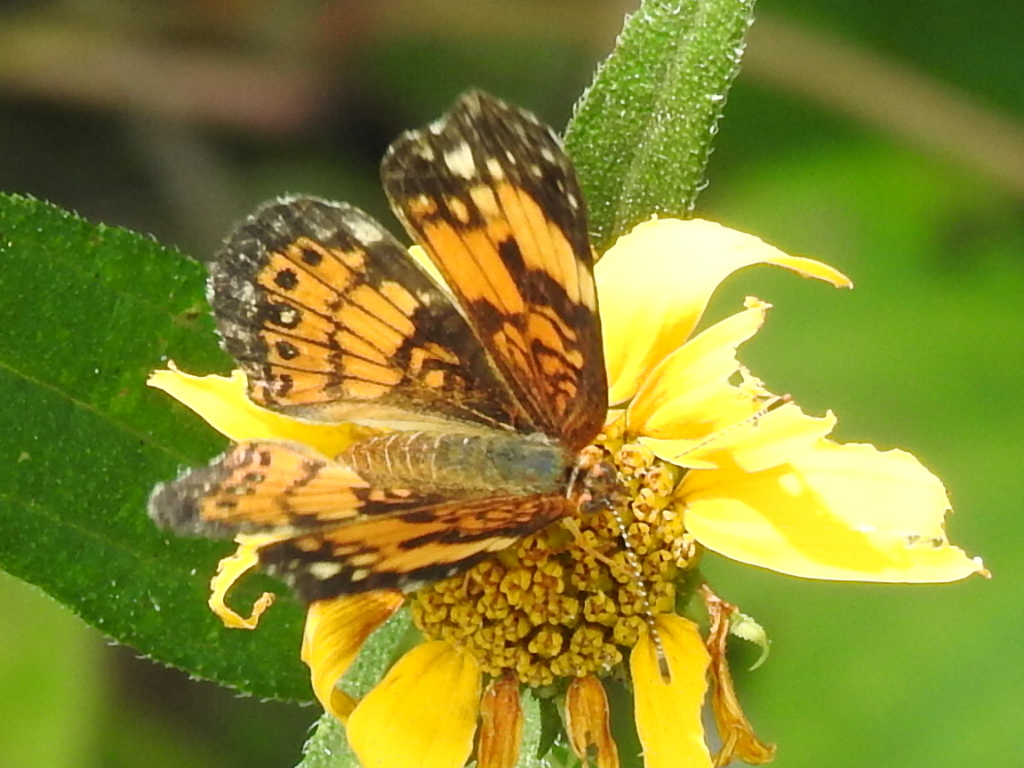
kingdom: Animalia
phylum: Arthropoda
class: Insecta
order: Lepidoptera
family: Nymphalidae
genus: Chlosyne
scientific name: Chlosyne nycteis
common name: Silvery checkerspot
